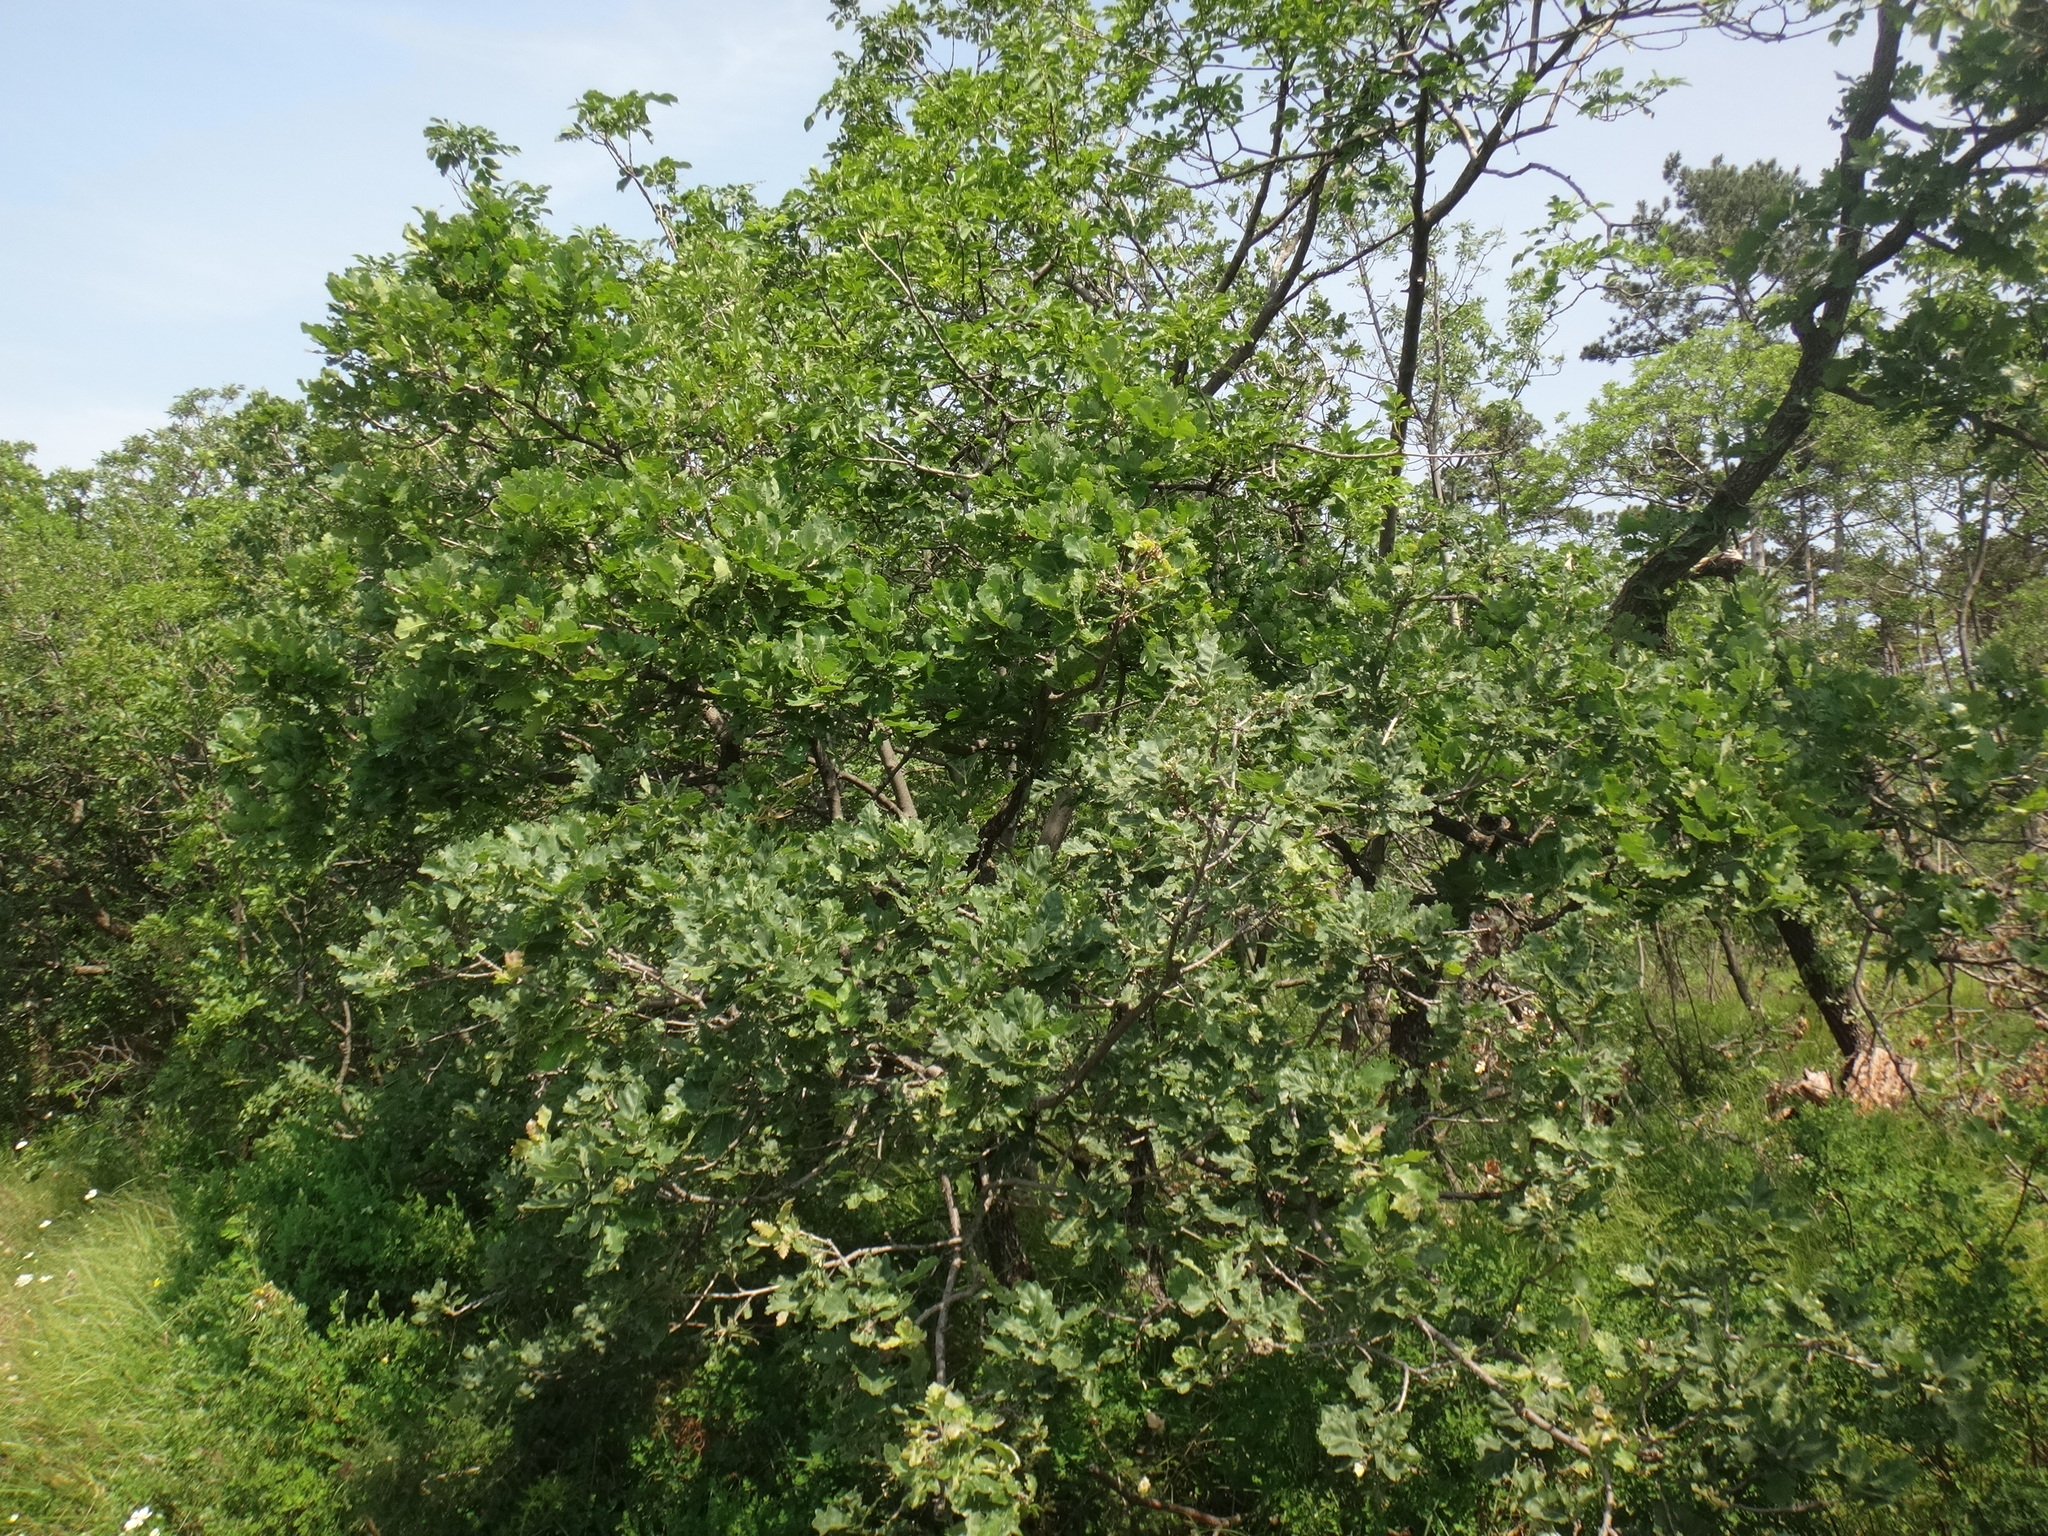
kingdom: Plantae
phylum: Tracheophyta
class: Magnoliopsida
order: Fagales
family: Fagaceae
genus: Quercus
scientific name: Quercus pubescens
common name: Downy oak
